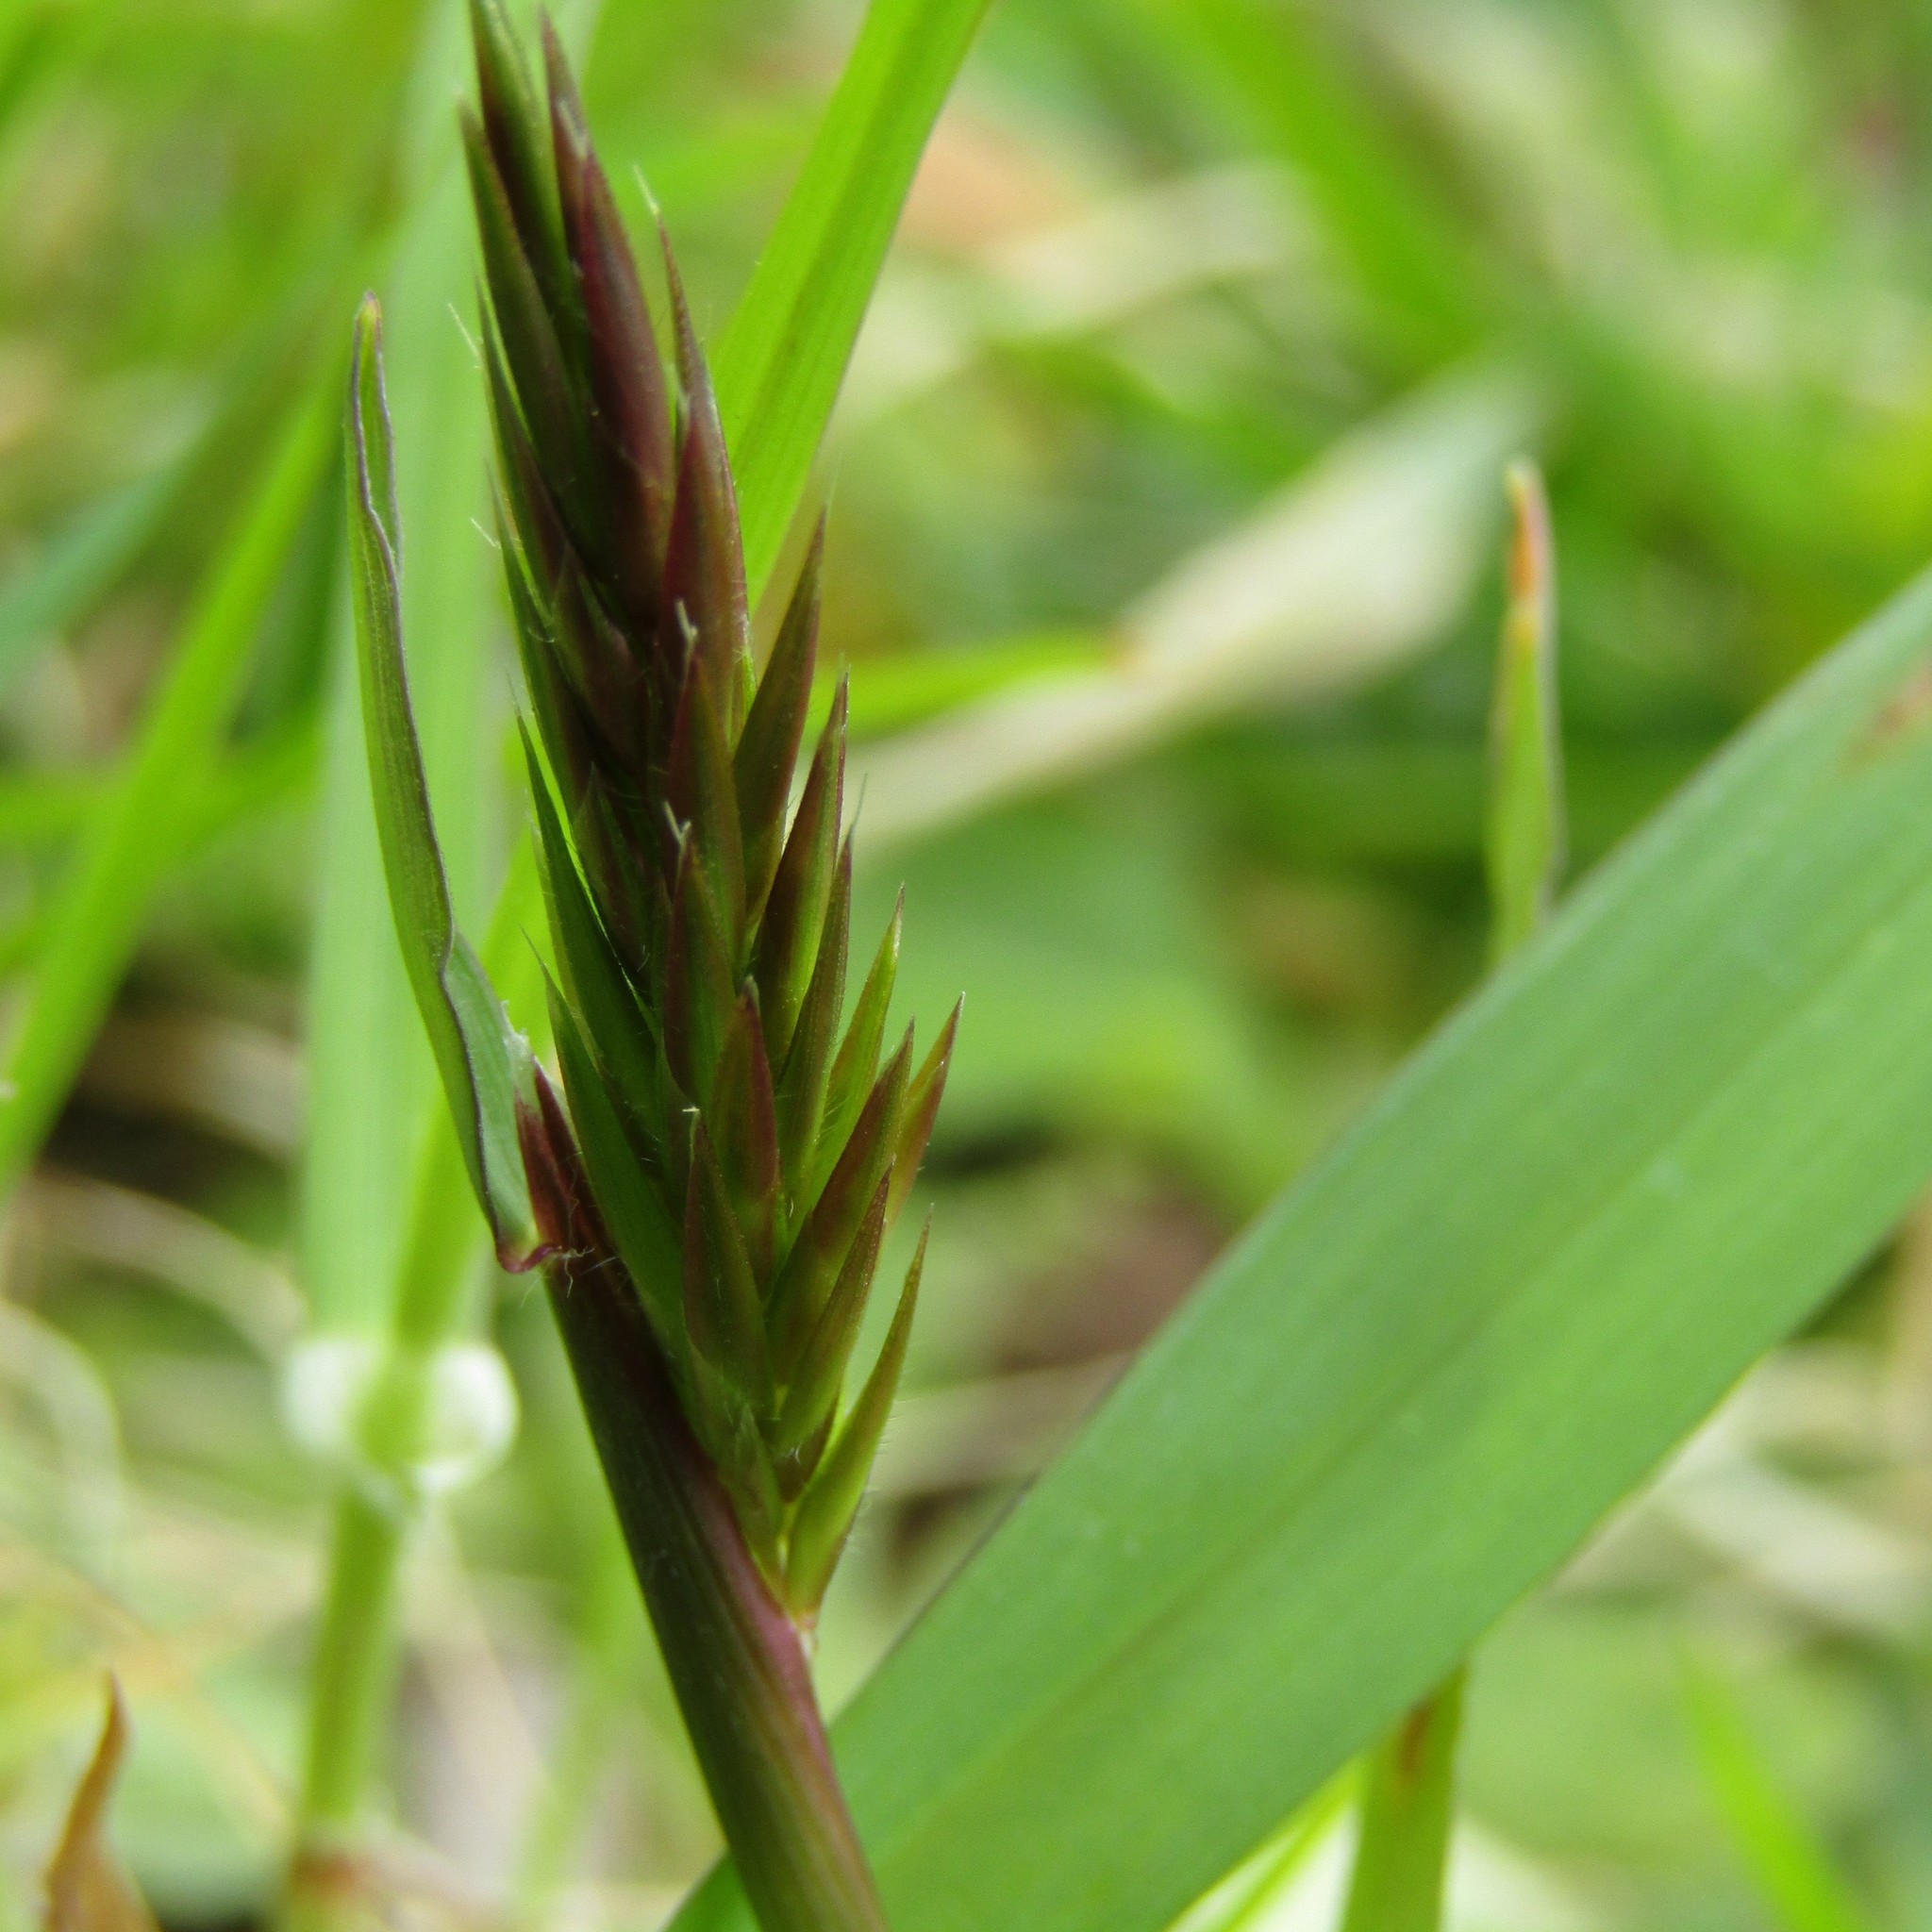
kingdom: Plantae
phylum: Tracheophyta
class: Liliopsida
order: Poales
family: Poaceae
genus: Anthoxanthum
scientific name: Anthoxanthum odoratum
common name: Sweet vernalgrass
